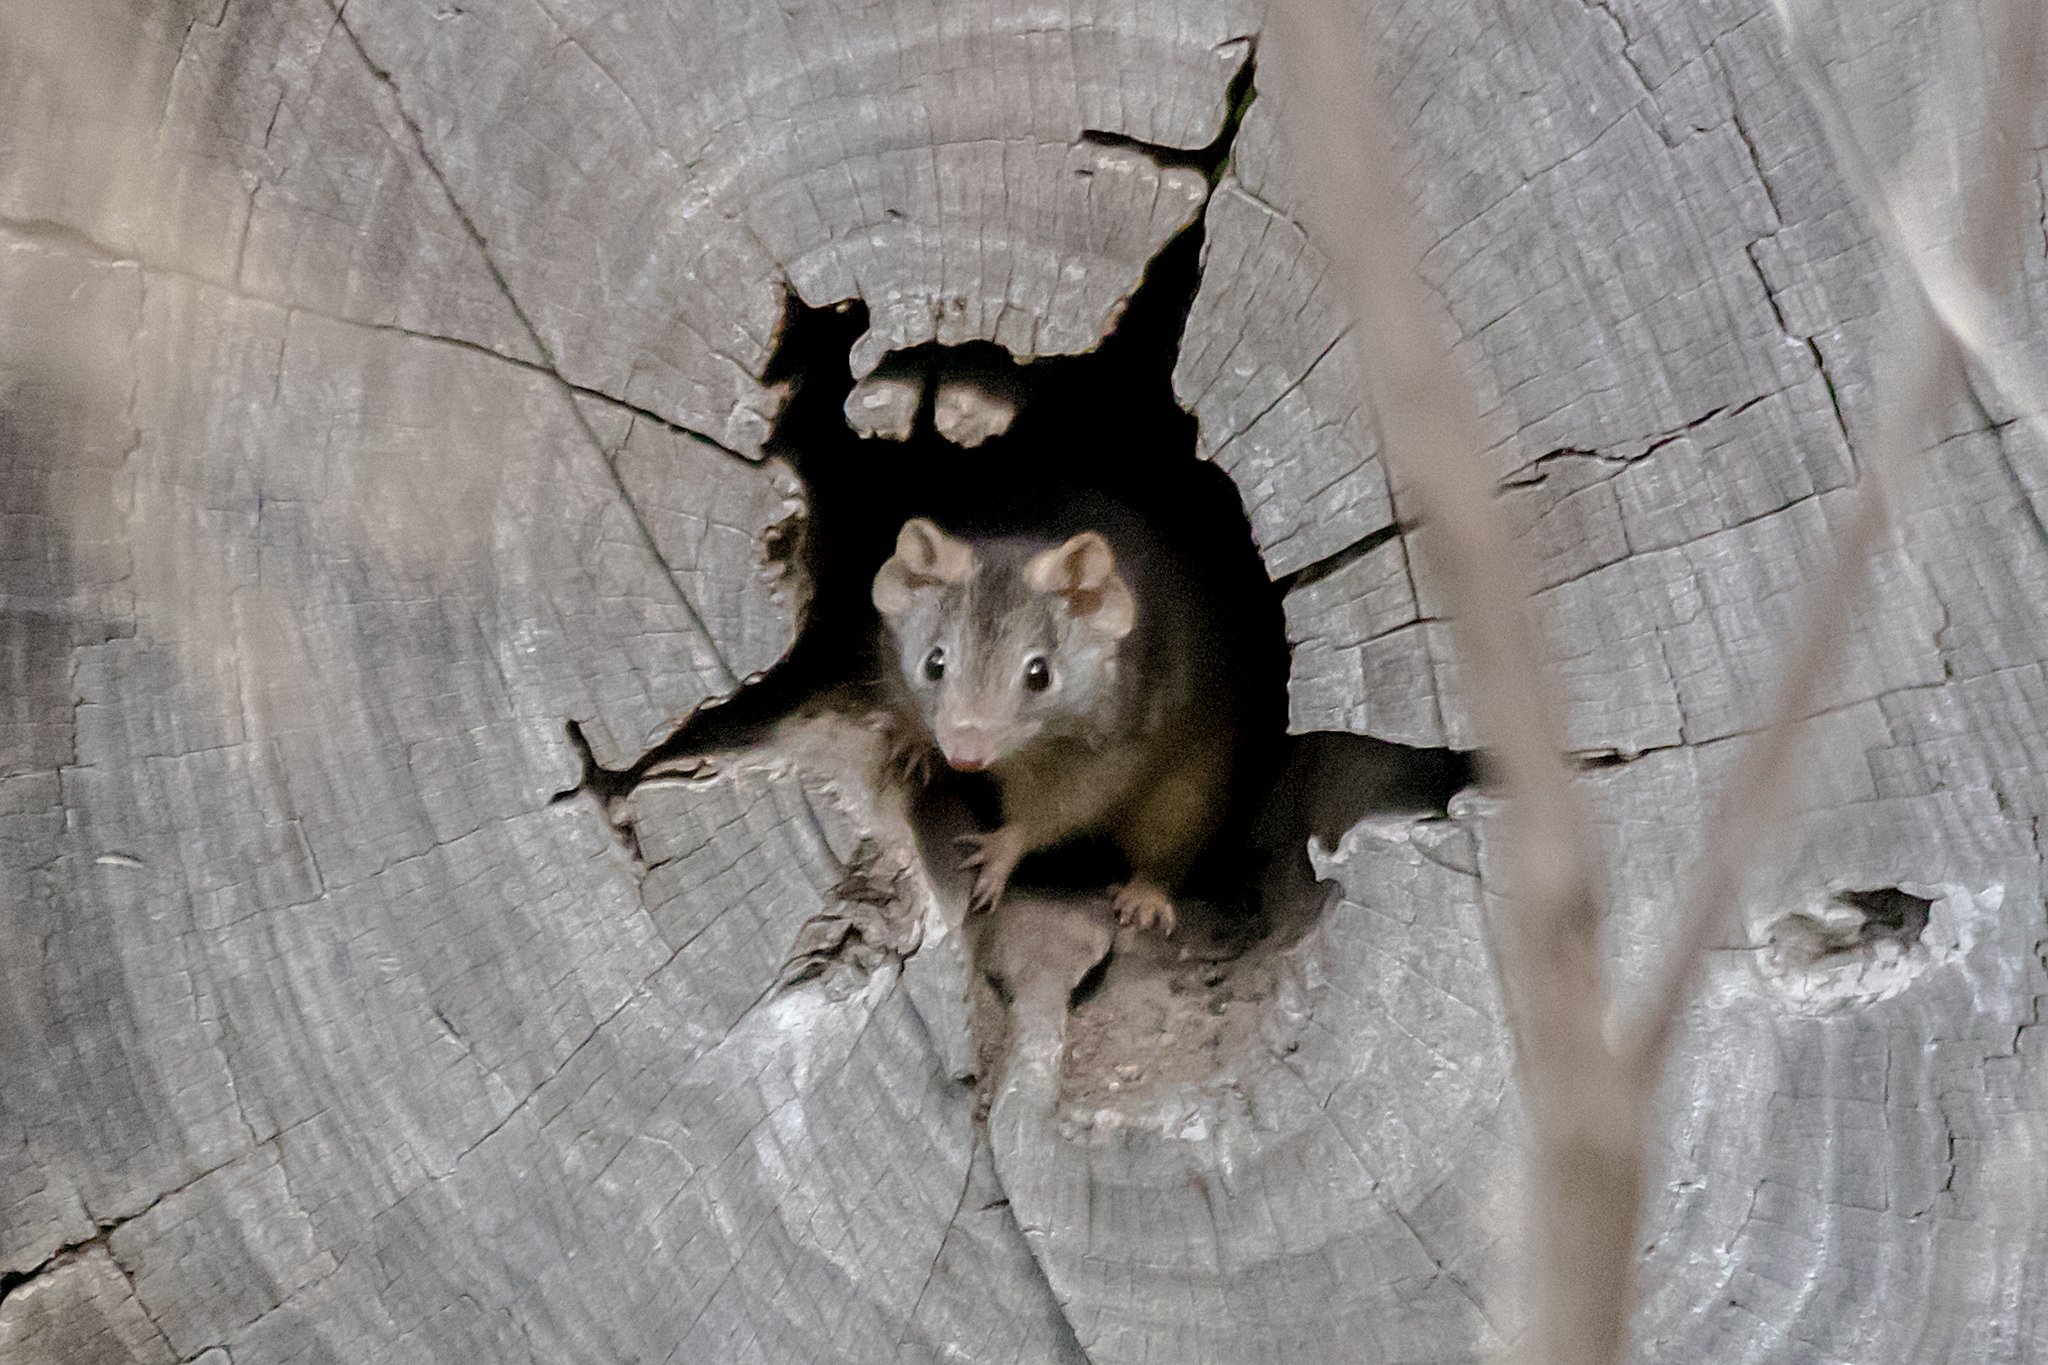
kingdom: Animalia
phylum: Chordata
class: Mammalia
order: Dasyuromorphia
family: Dasyuridae
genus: Antechinus
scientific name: Antechinus flavipes
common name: Yellow-footed antechinus
